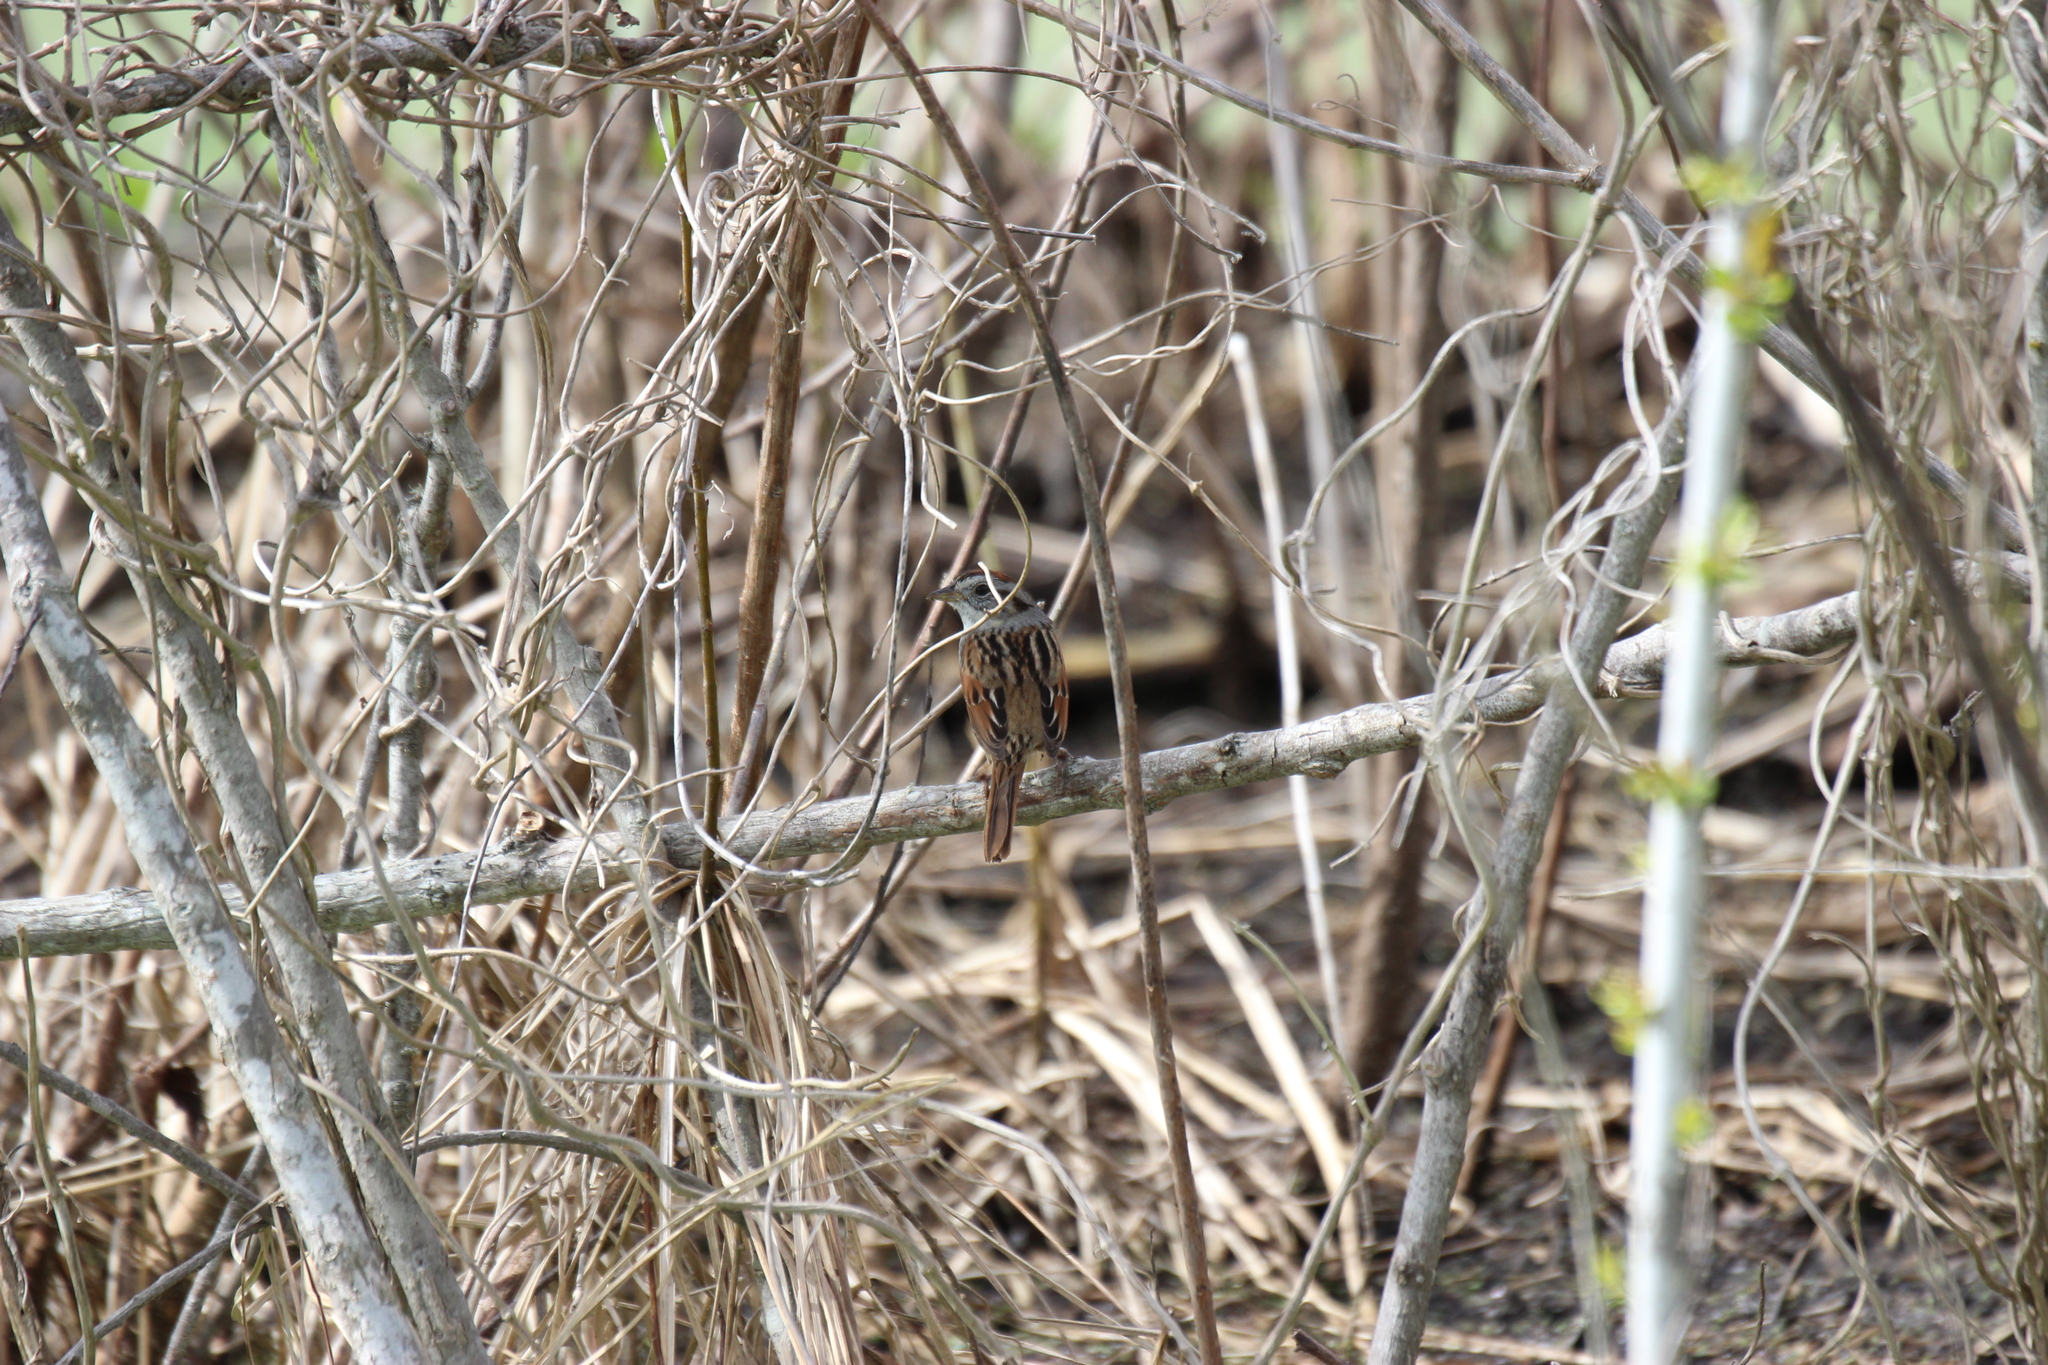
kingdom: Animalia
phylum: Chordata
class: Aves
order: Passeriformes
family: Passerellidae
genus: Melospiza
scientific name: Melospiza georgiana
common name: Swamp sparrow
